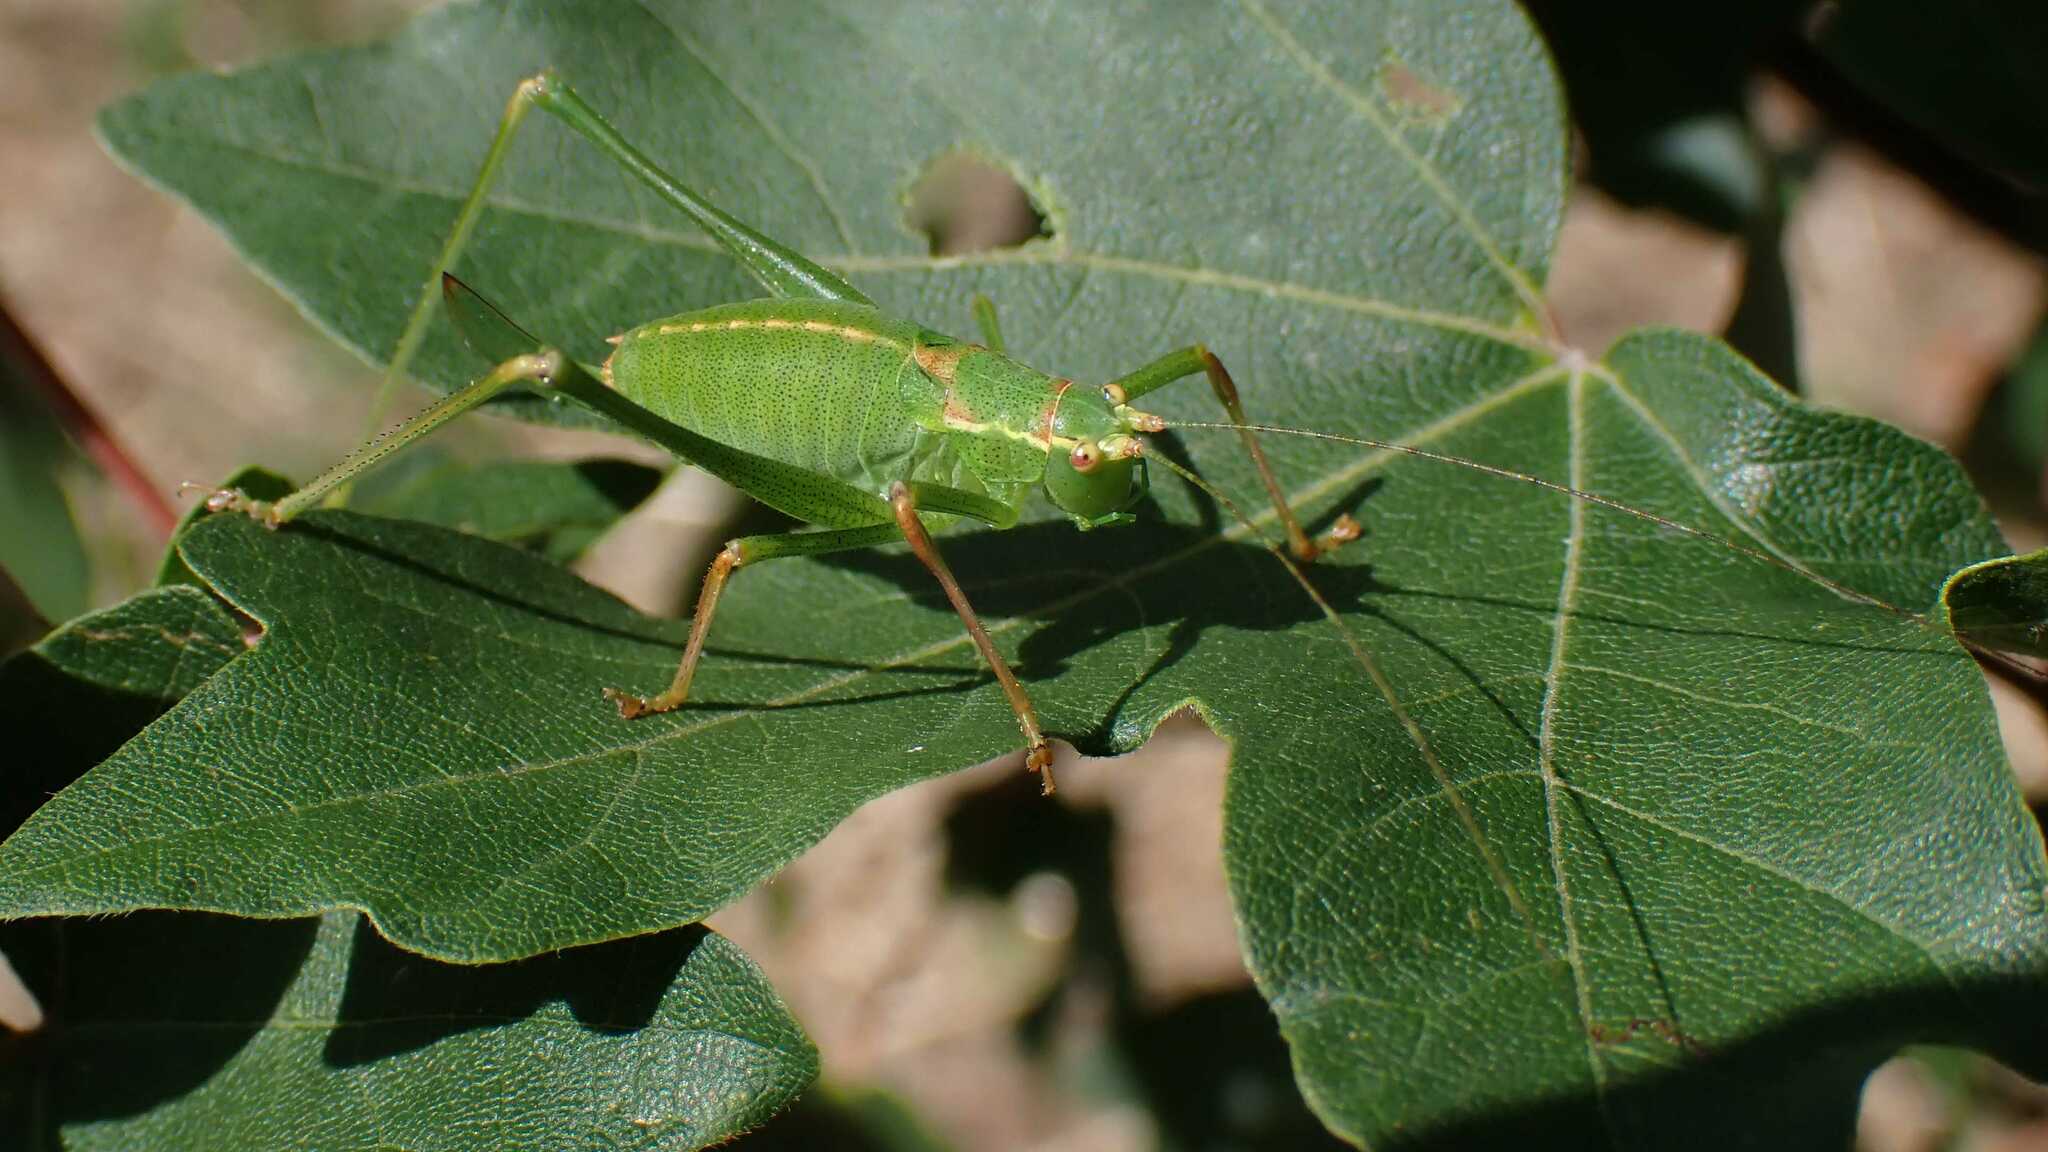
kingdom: Animalia
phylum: Arthropoda
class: Insecta
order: Orthoptera
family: Tettigoniidae
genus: Leptophyes
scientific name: Leptophyes punctatissima
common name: Speckled bush-cricket
